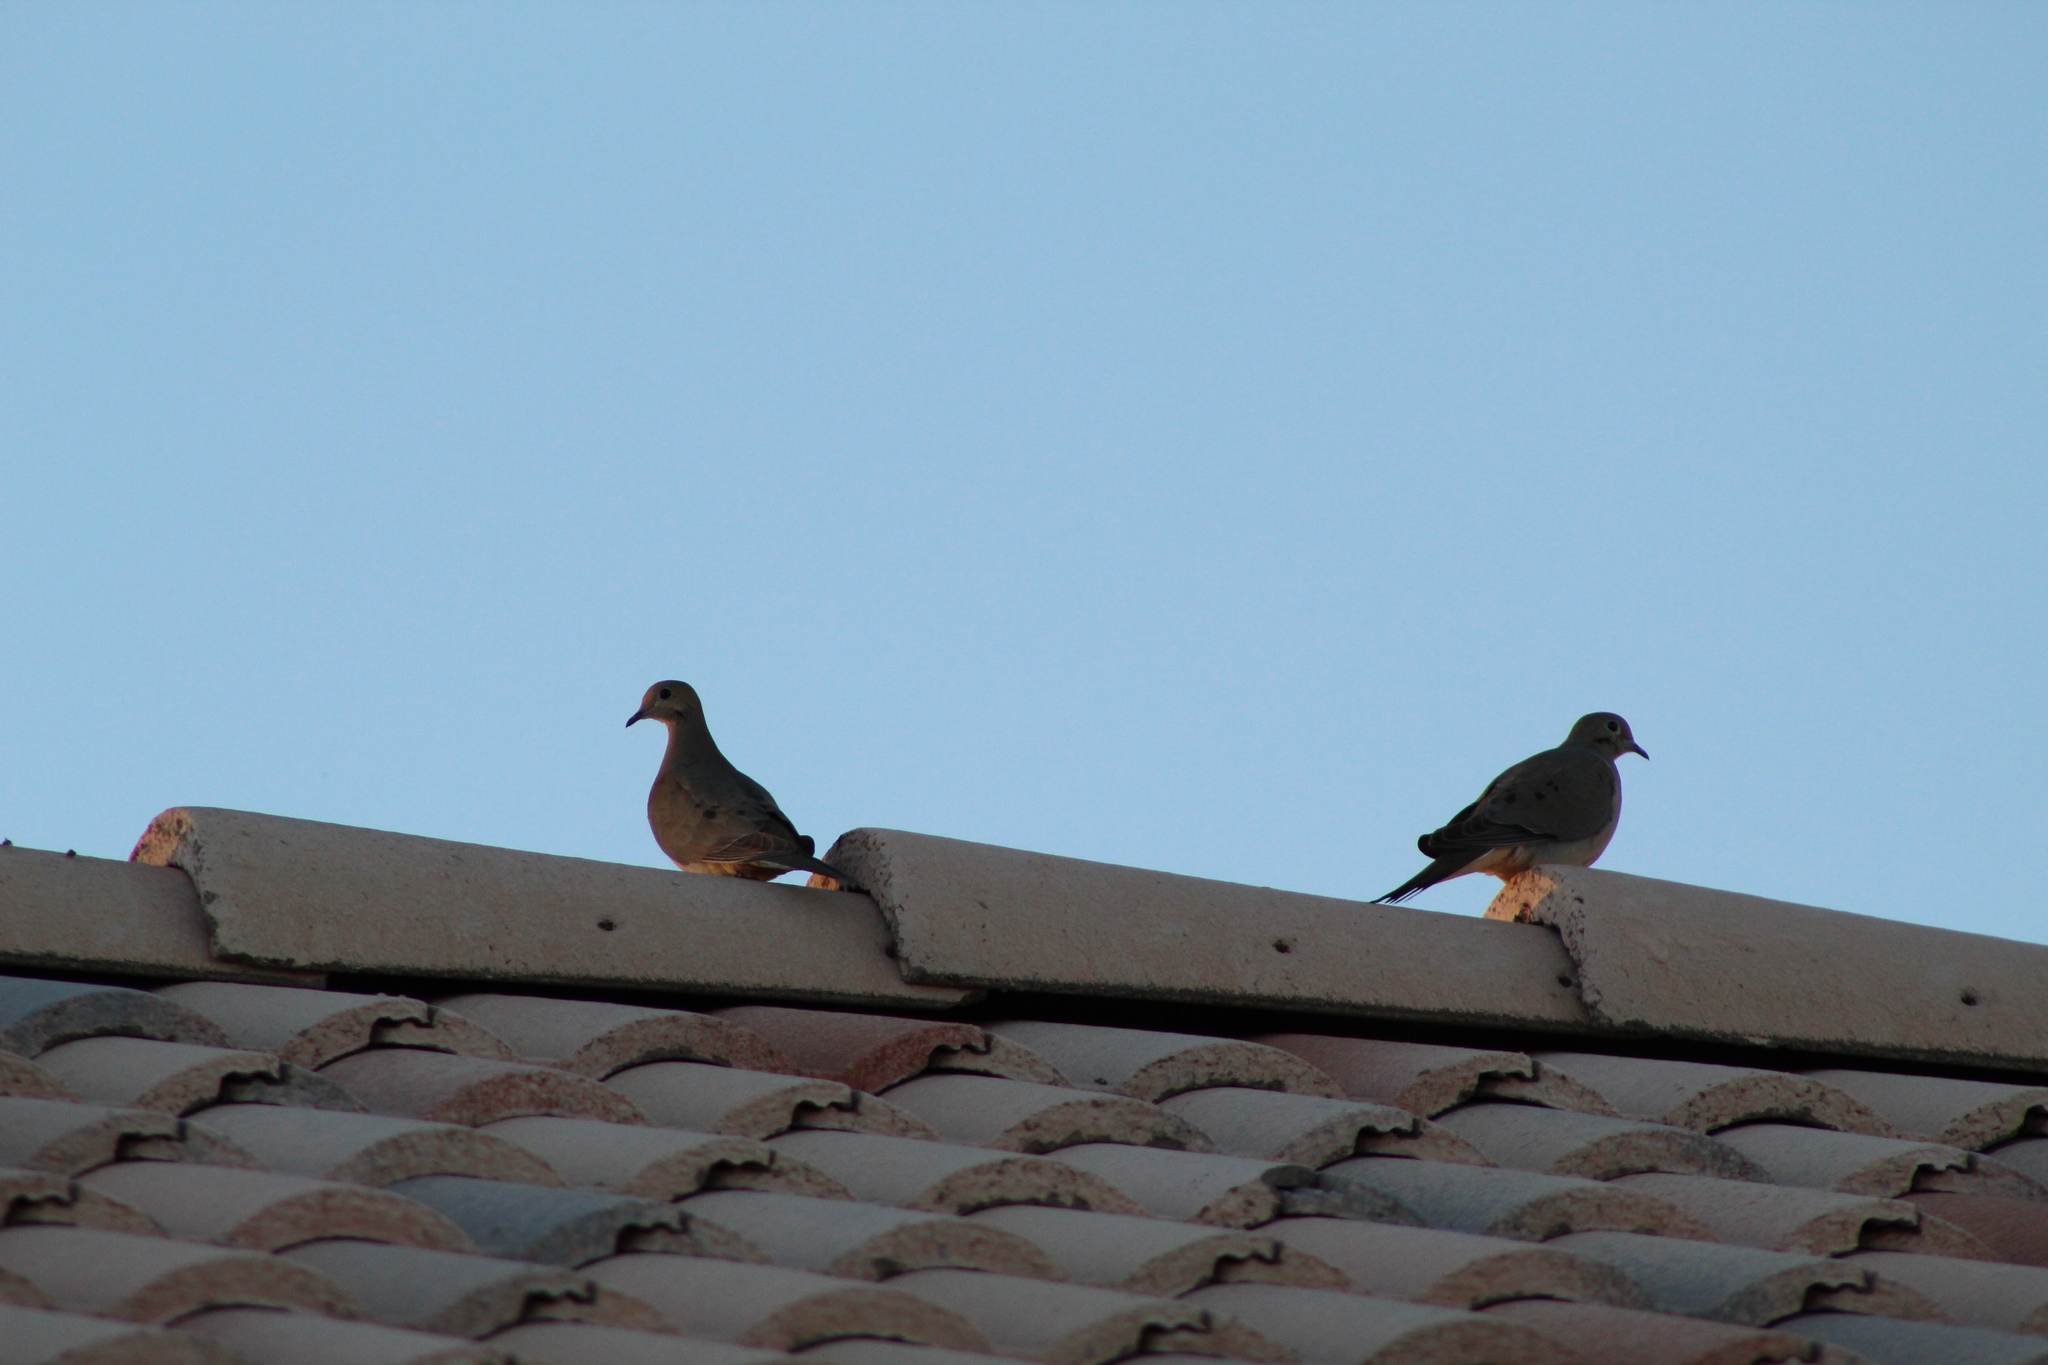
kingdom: Animalia
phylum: Chordata
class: Aves
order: Columbiformes
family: Columbidae
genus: Zenaida
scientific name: Zenaida macroura
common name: Mourning dove
